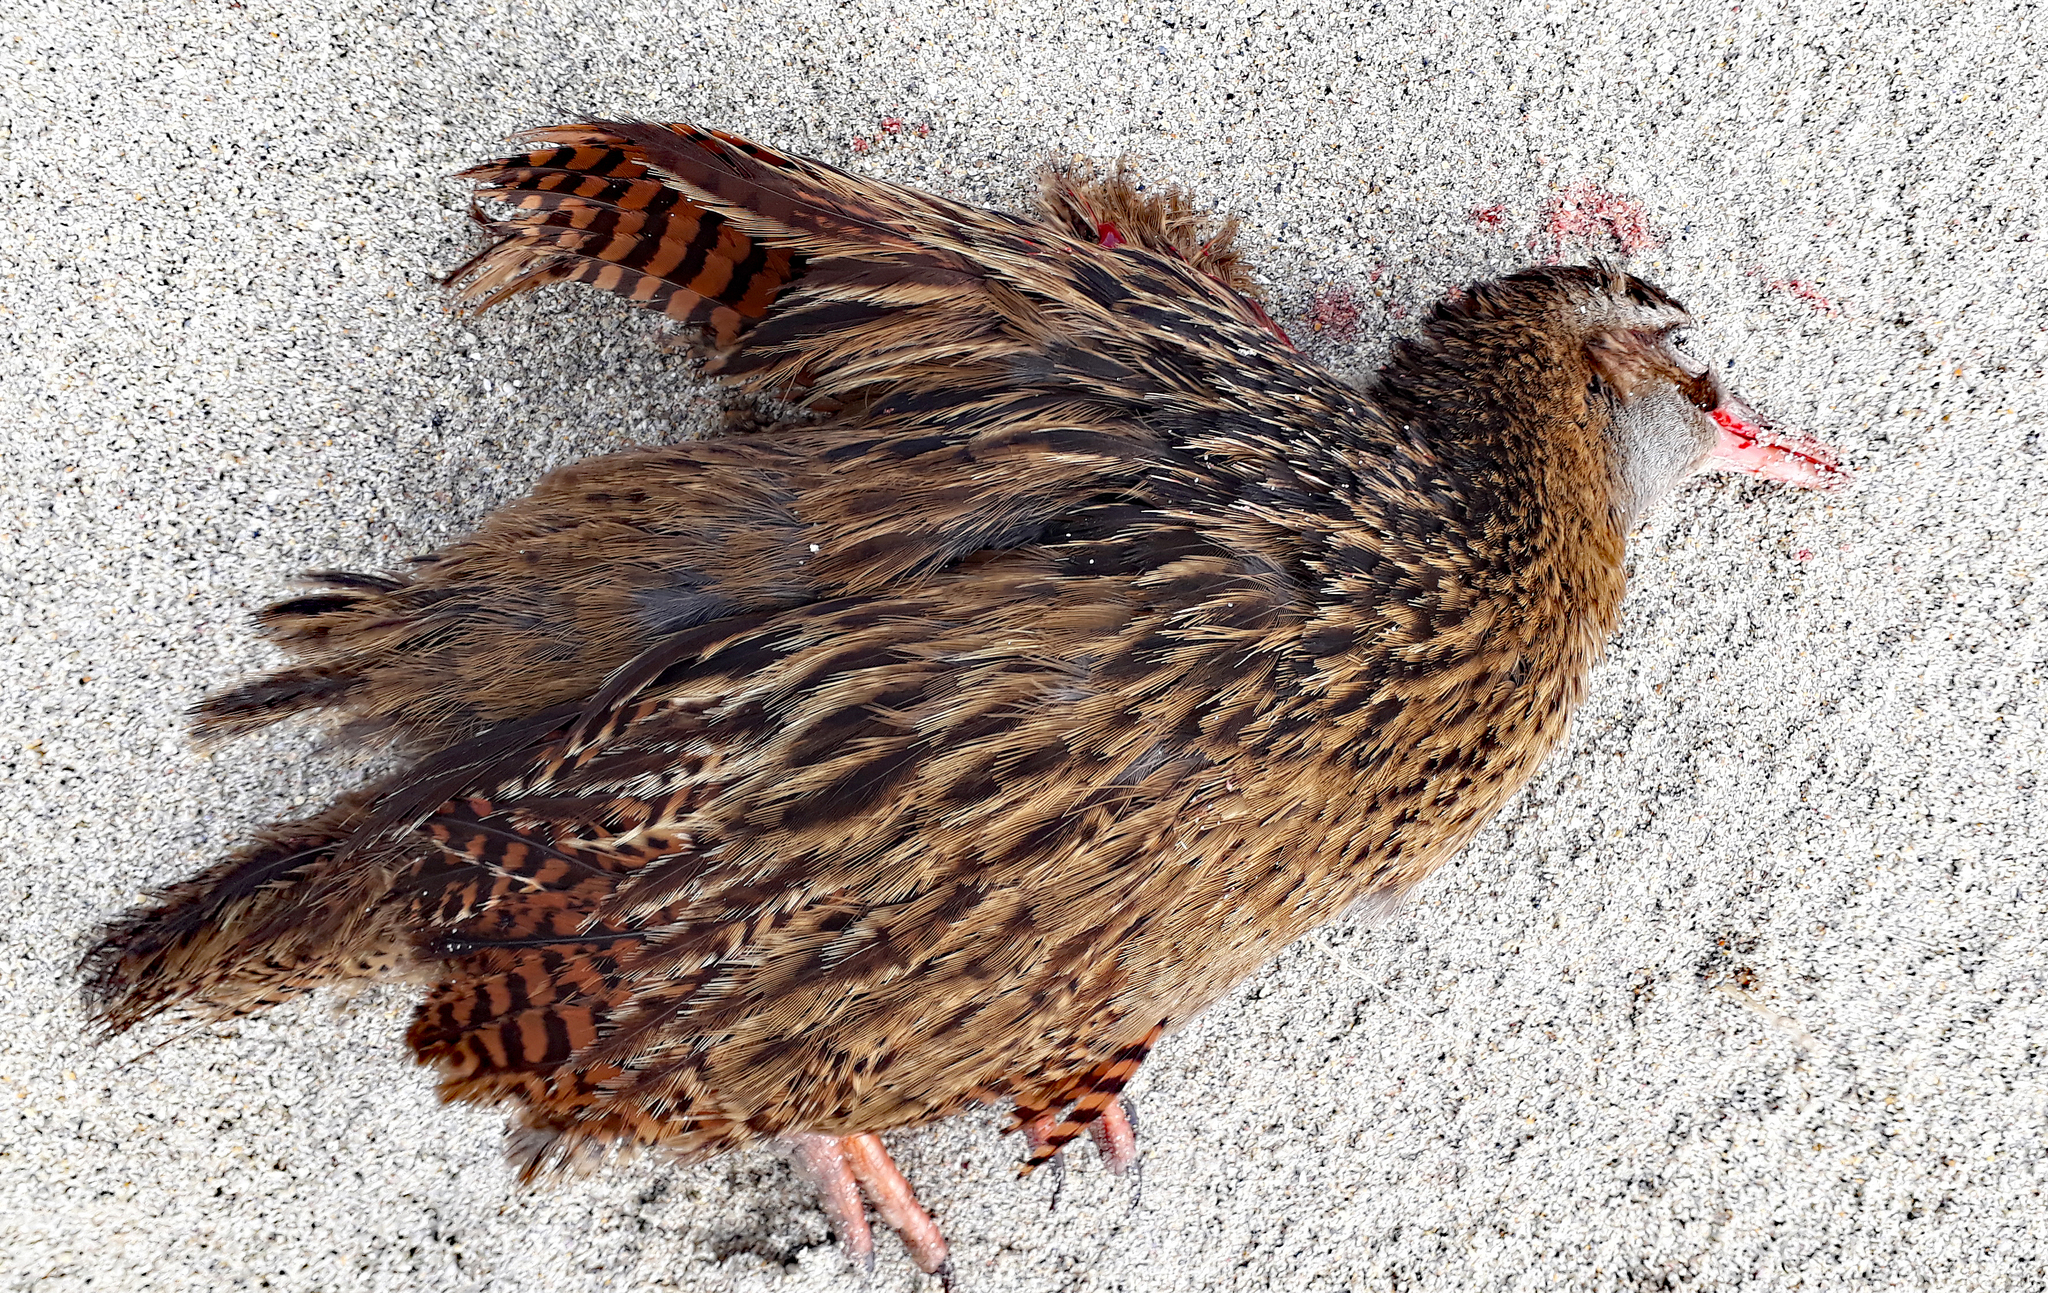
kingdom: Animalia
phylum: Chordata
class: Aves
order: Gruiformes
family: Rallidae
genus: Gallirallus
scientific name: Gallirallus australis
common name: Weka
